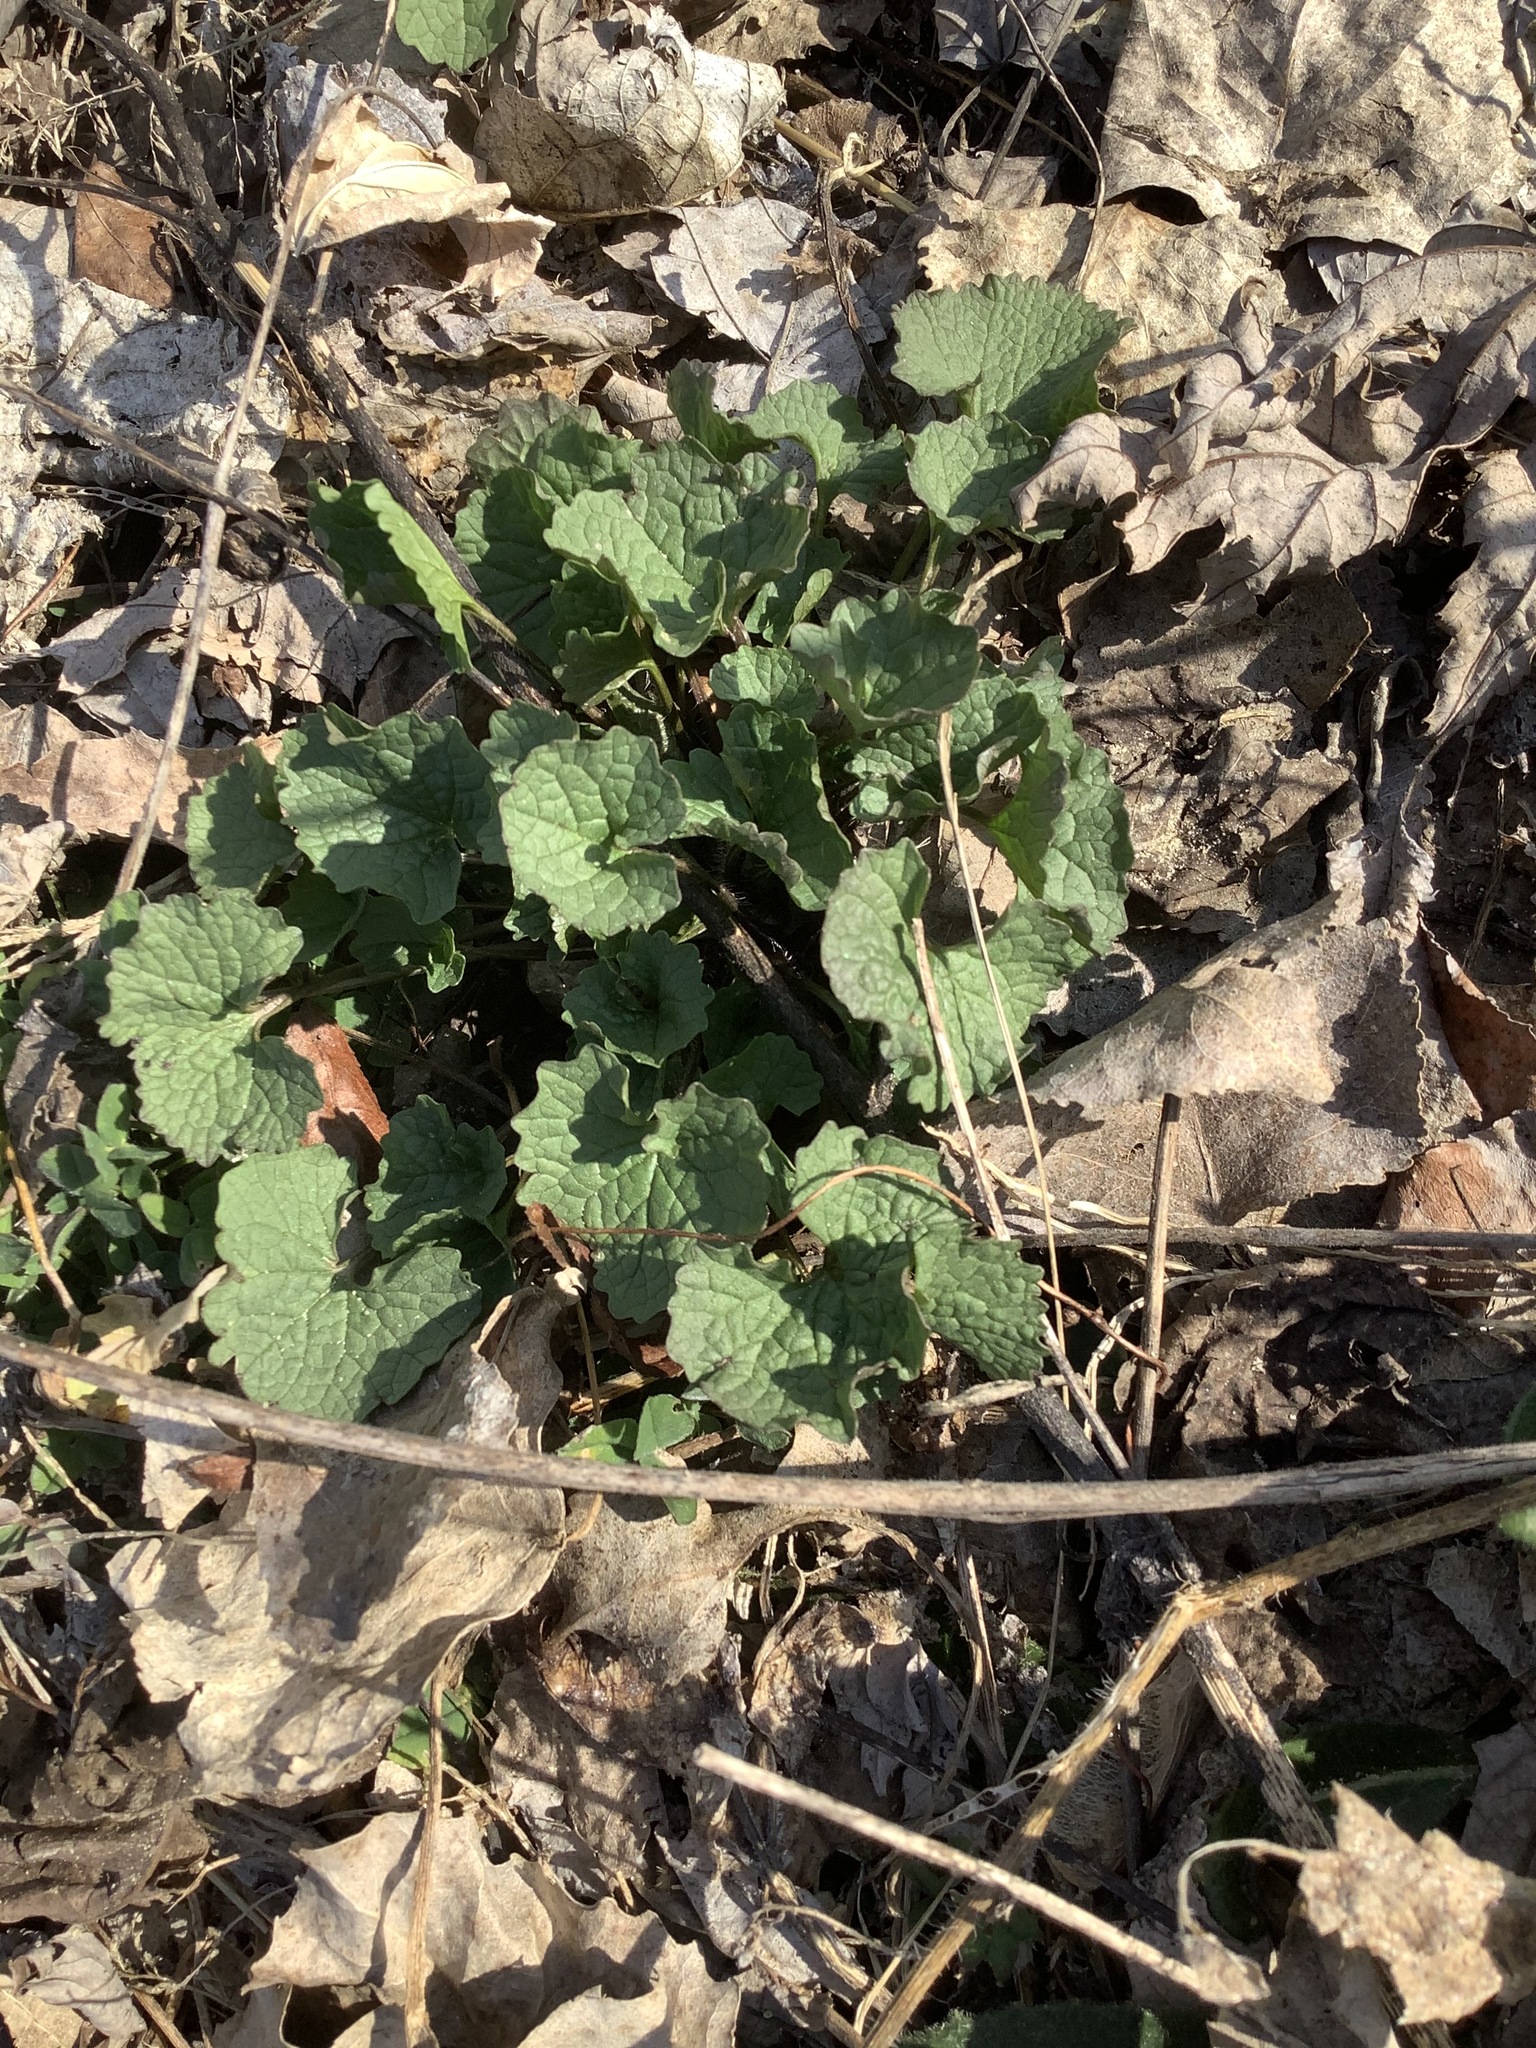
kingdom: Plantae
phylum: Tracheophyta
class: Magnoliopsida
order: Brassicales
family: Brassicaceae
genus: Alliaria
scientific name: Alliaria petiolata
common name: Garlic mustard
